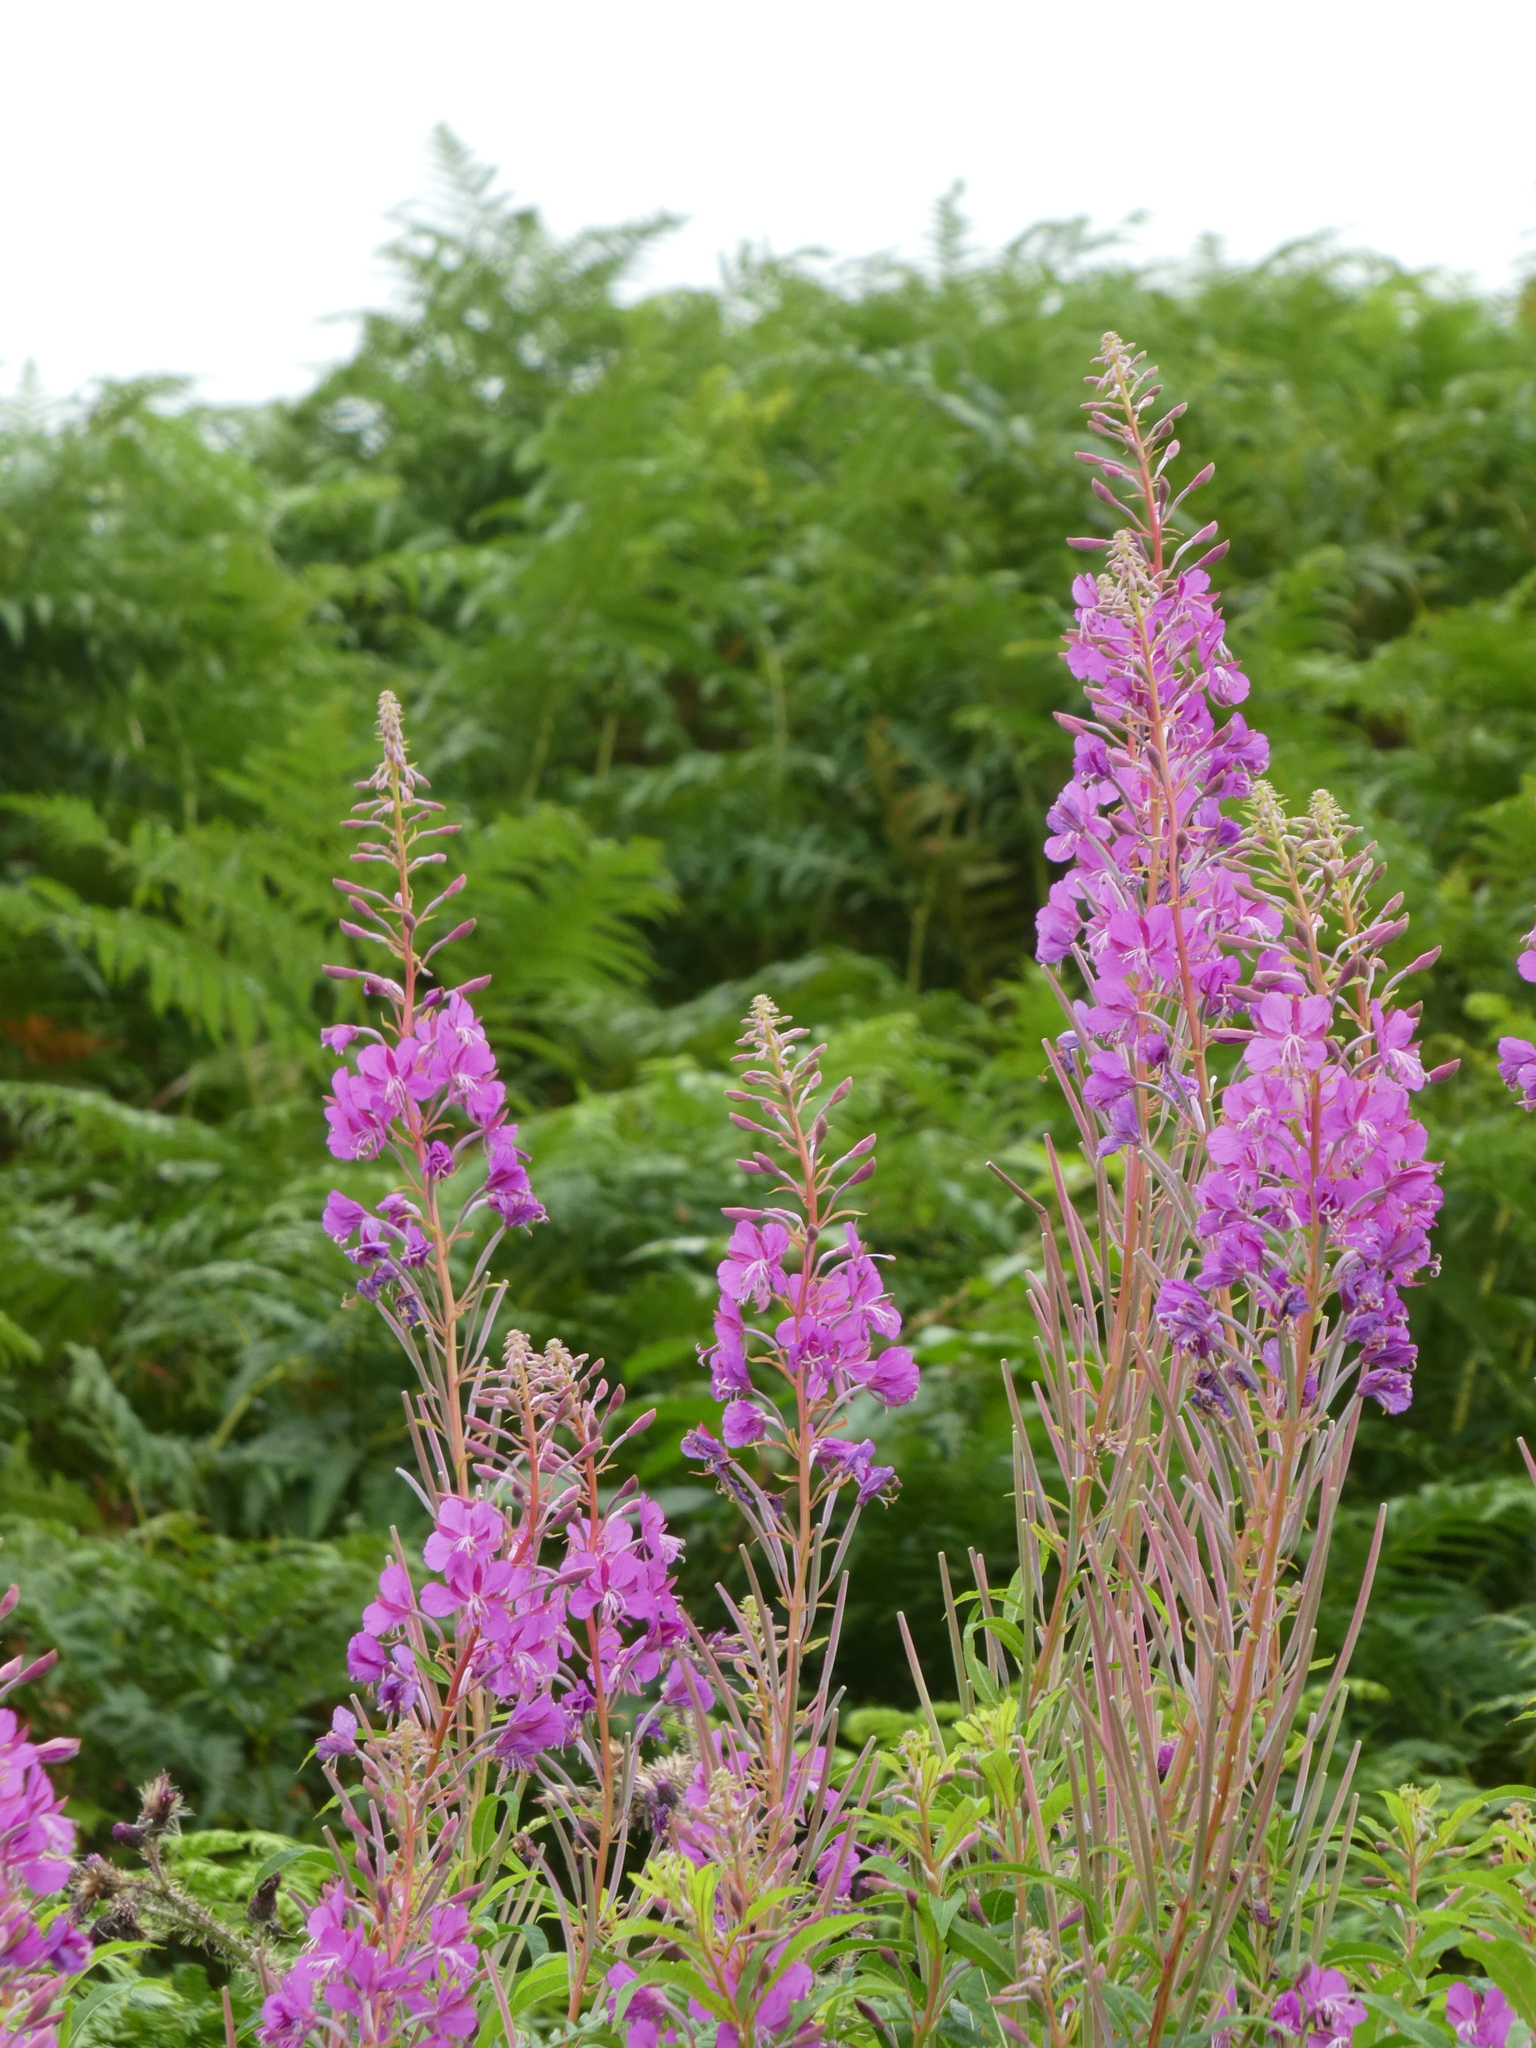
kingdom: Plantae
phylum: Tracheophyta
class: Magnoliopsida
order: Myrtales
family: Onagraceae
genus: Chamaenerion
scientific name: Chamaenerion angustifolium
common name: Fireweed
